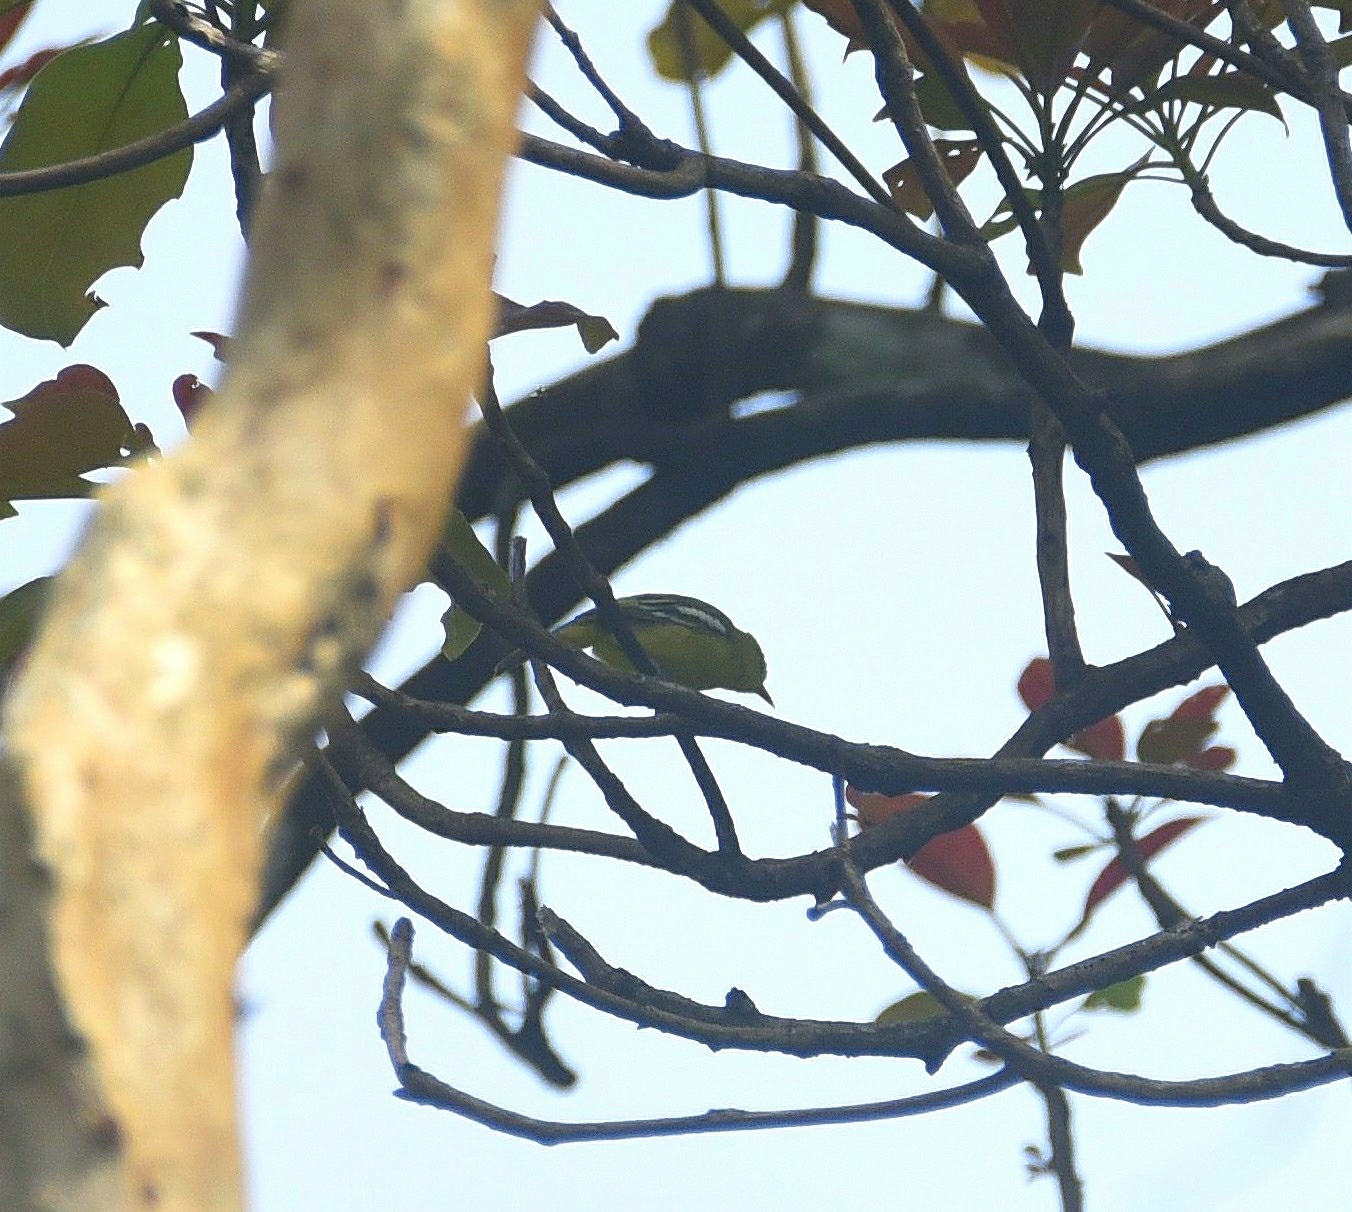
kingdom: Animalia
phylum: Chordata
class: Aves
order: Passeriformes
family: Aegithinidae
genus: Aegithina
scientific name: Aegithina tiphia
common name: Common iora
